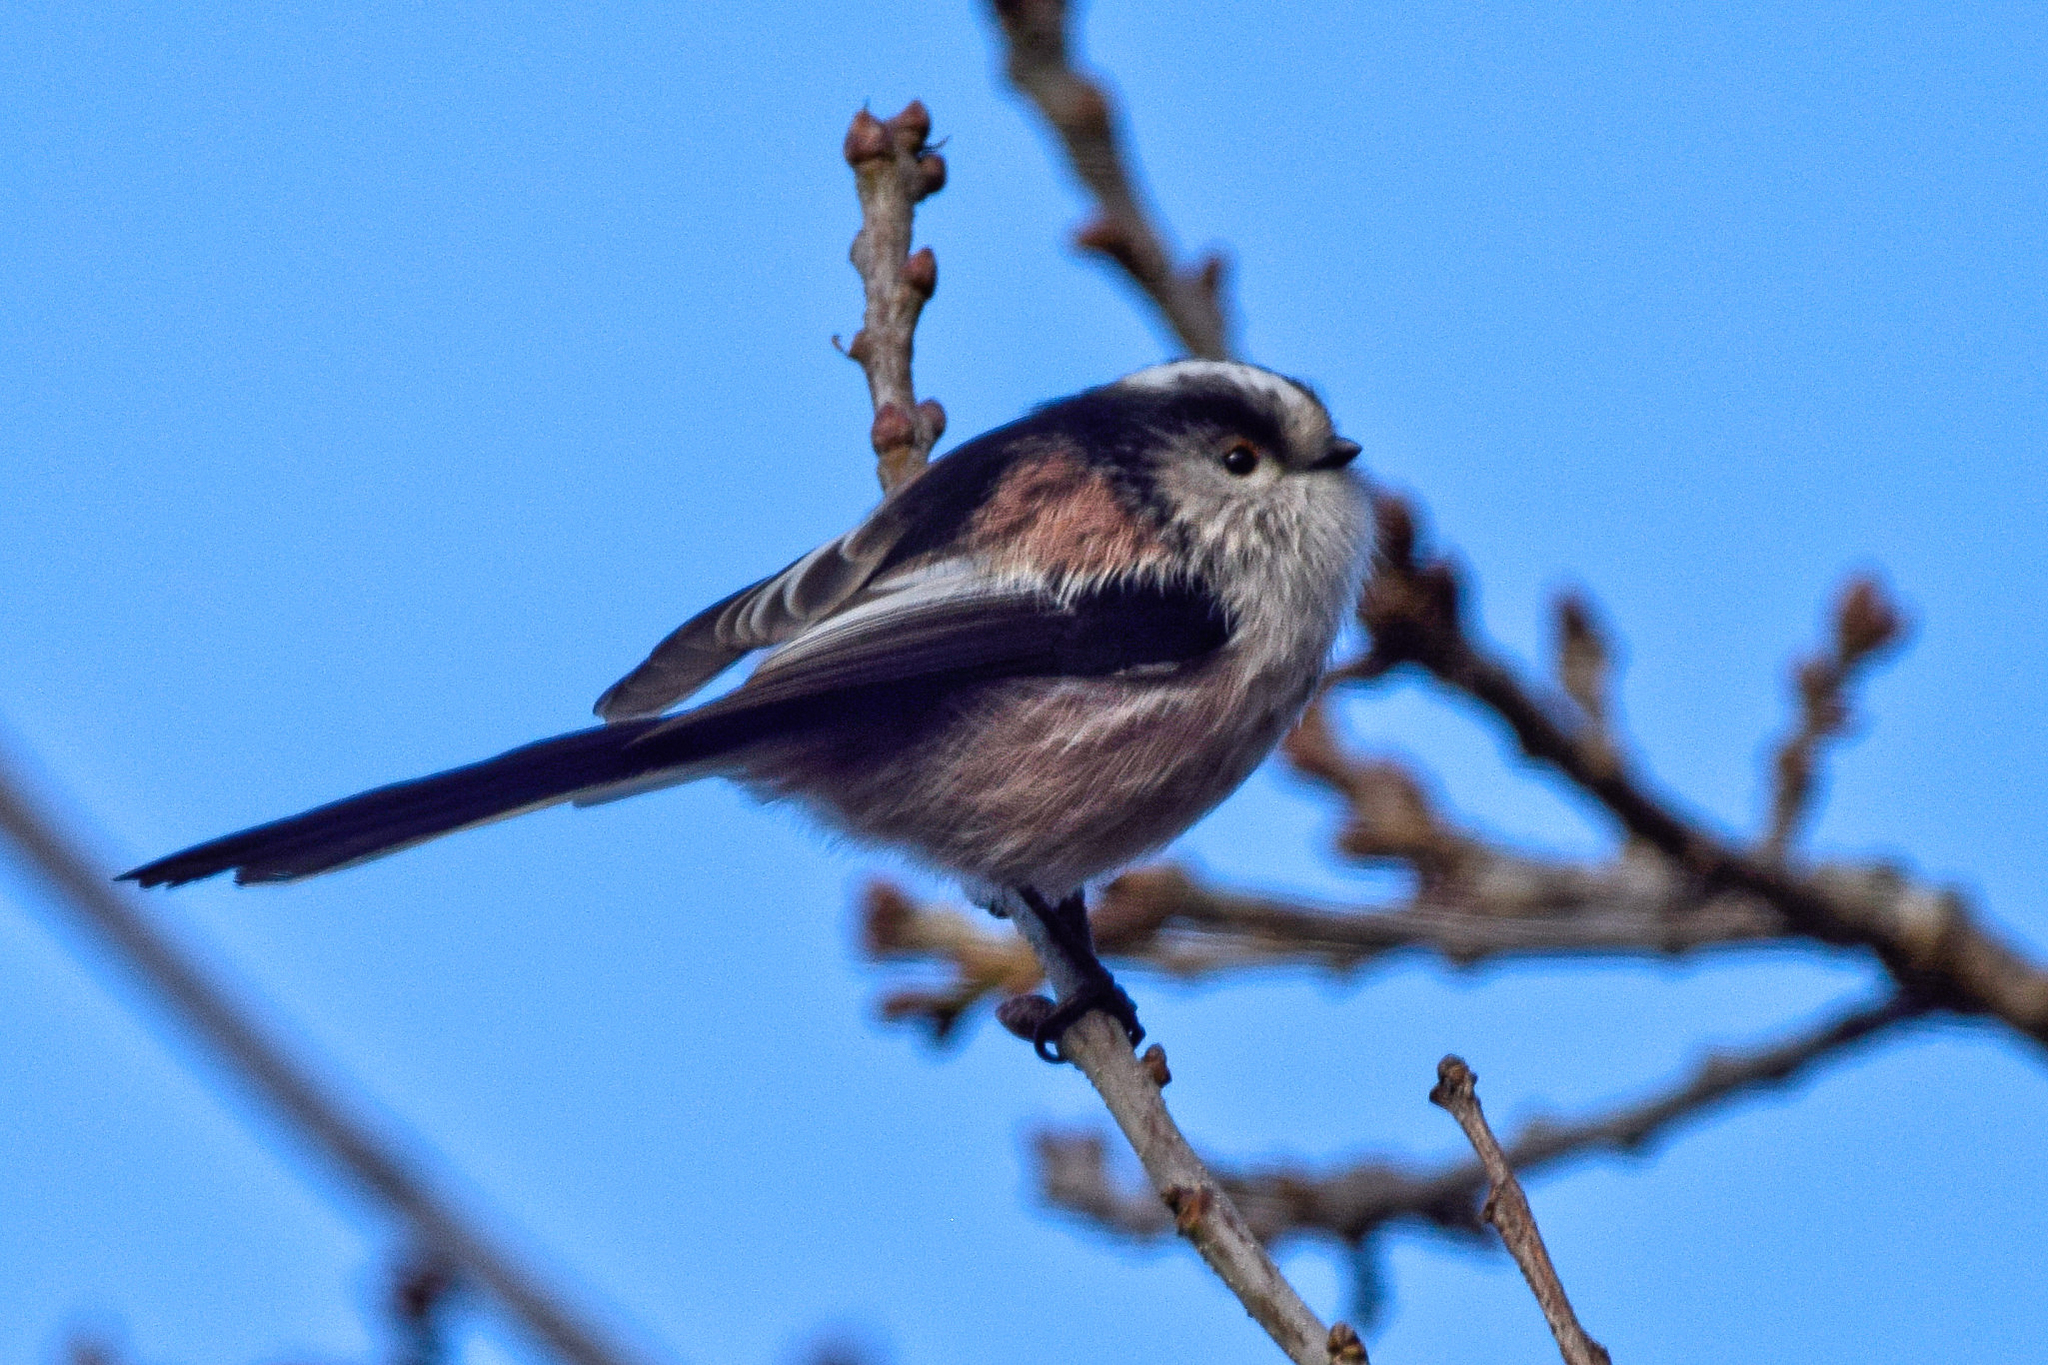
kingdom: Animalia
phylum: Chordata
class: Aves
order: Passeriformes
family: Aegithalidae
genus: Aegithalos
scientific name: Aegithalos caudatus
